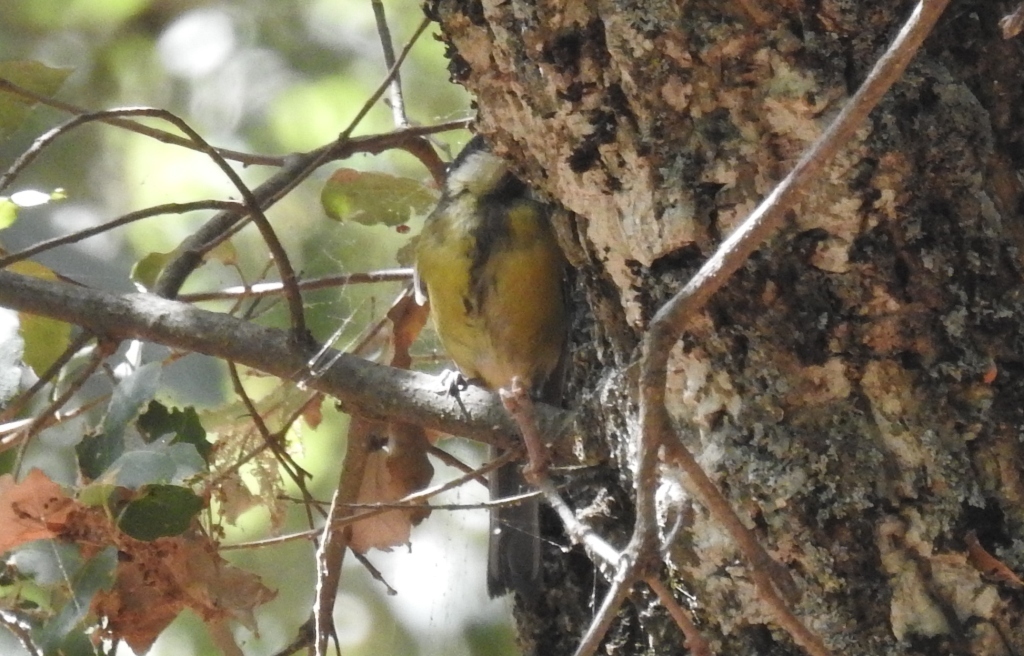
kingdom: Animalia
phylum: Chordata
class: Aves
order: Passeriformes
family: Paridae
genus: Parus
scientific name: Parus major
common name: Great tit
